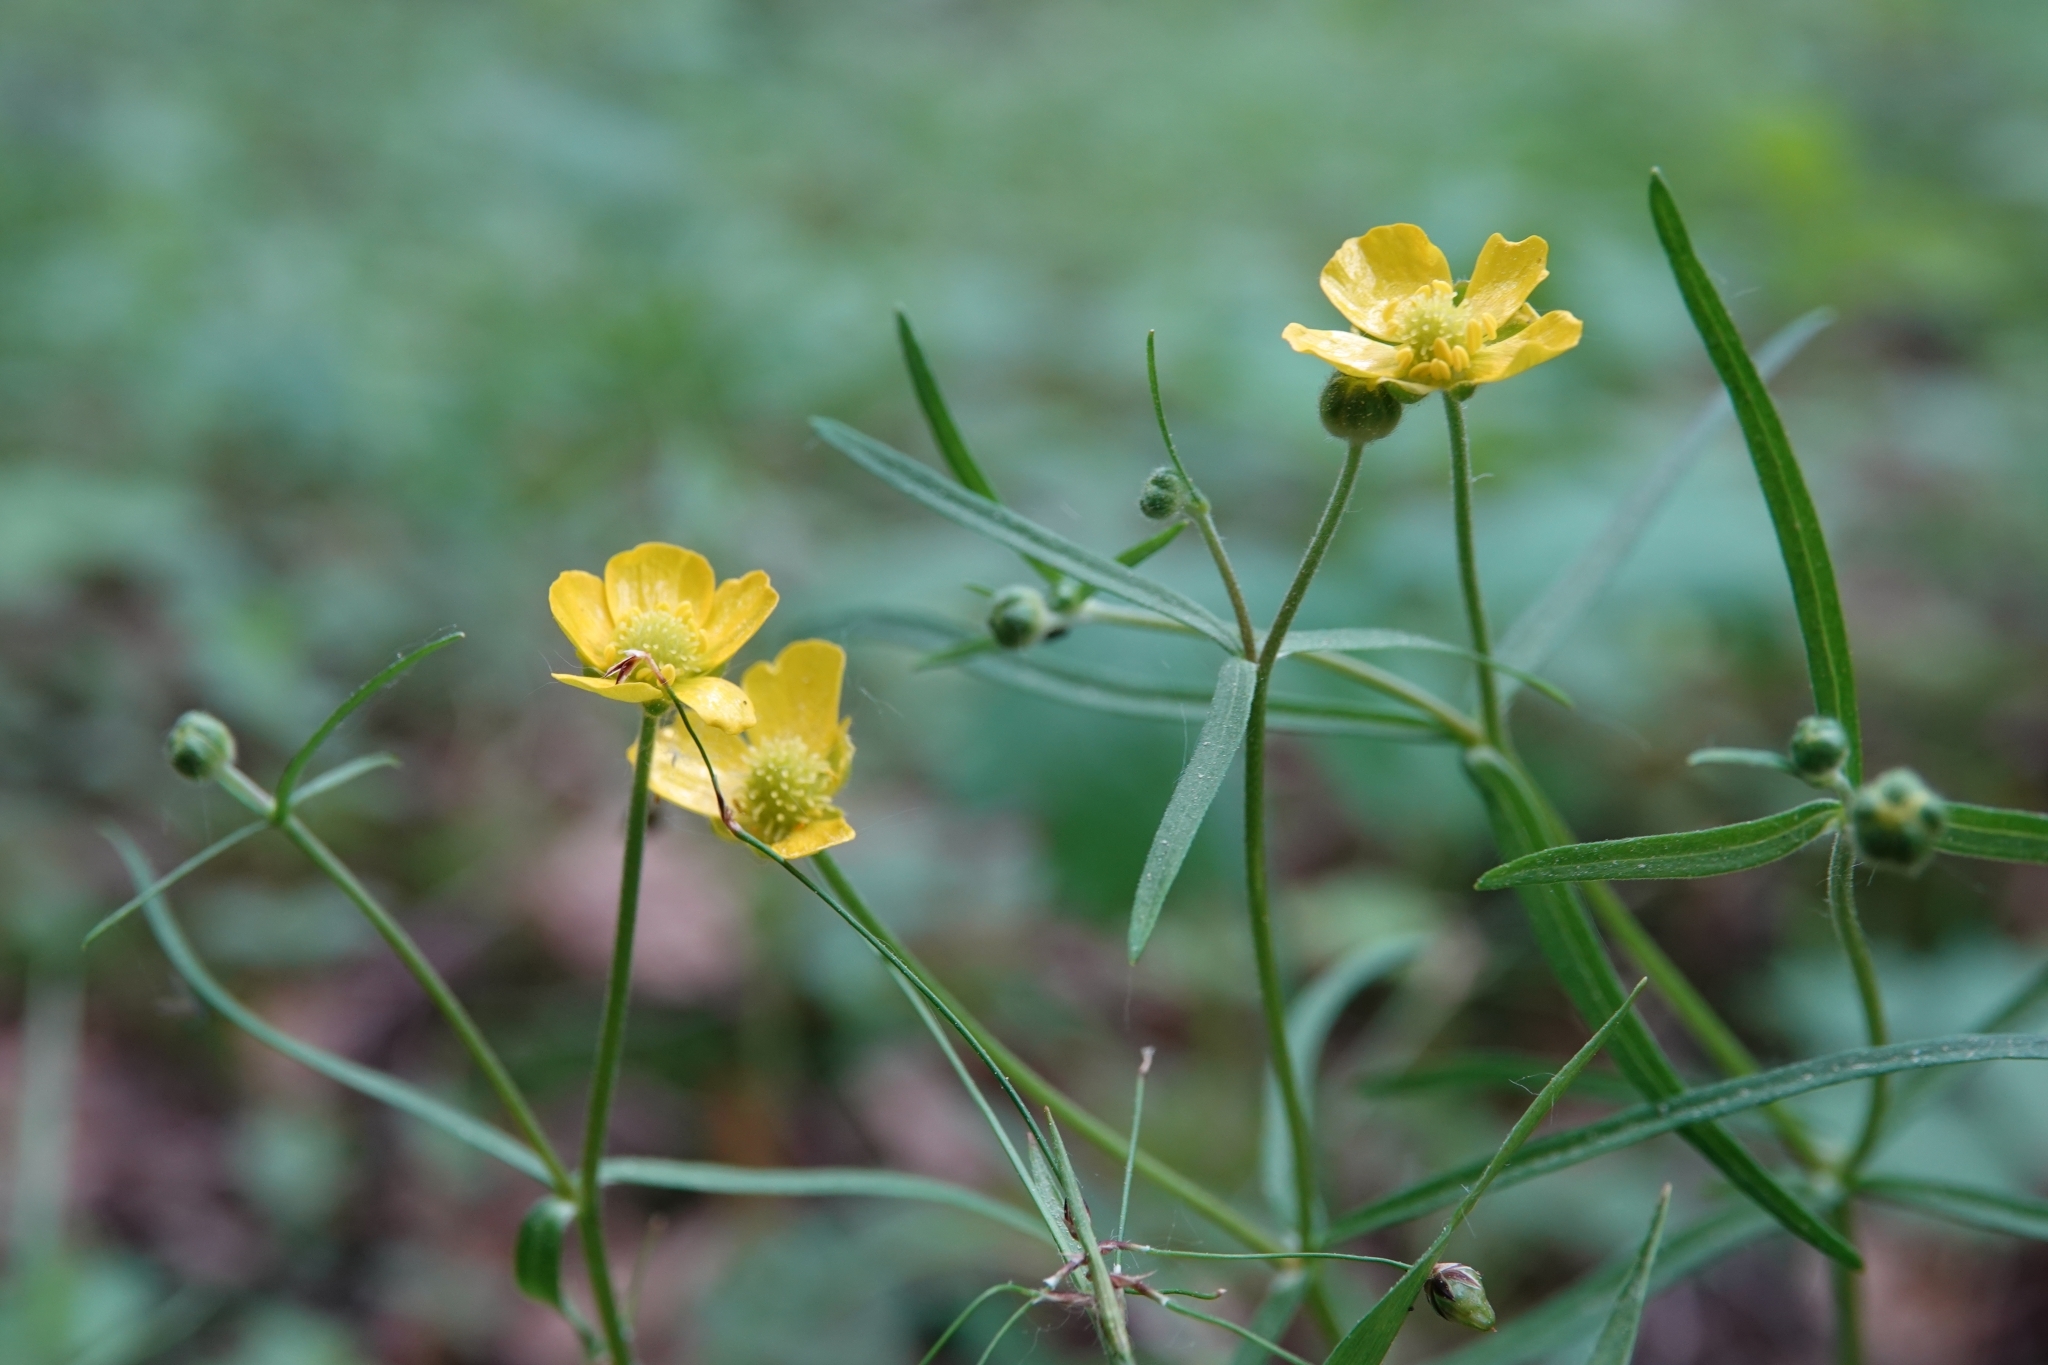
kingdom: Plantae
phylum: Tracheophyta
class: Magnoliopsida
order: Ranunculales
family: Ranunculaceae
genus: Ranunculus
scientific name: Ranunculus auricomus
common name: Goldilocks buttercup
